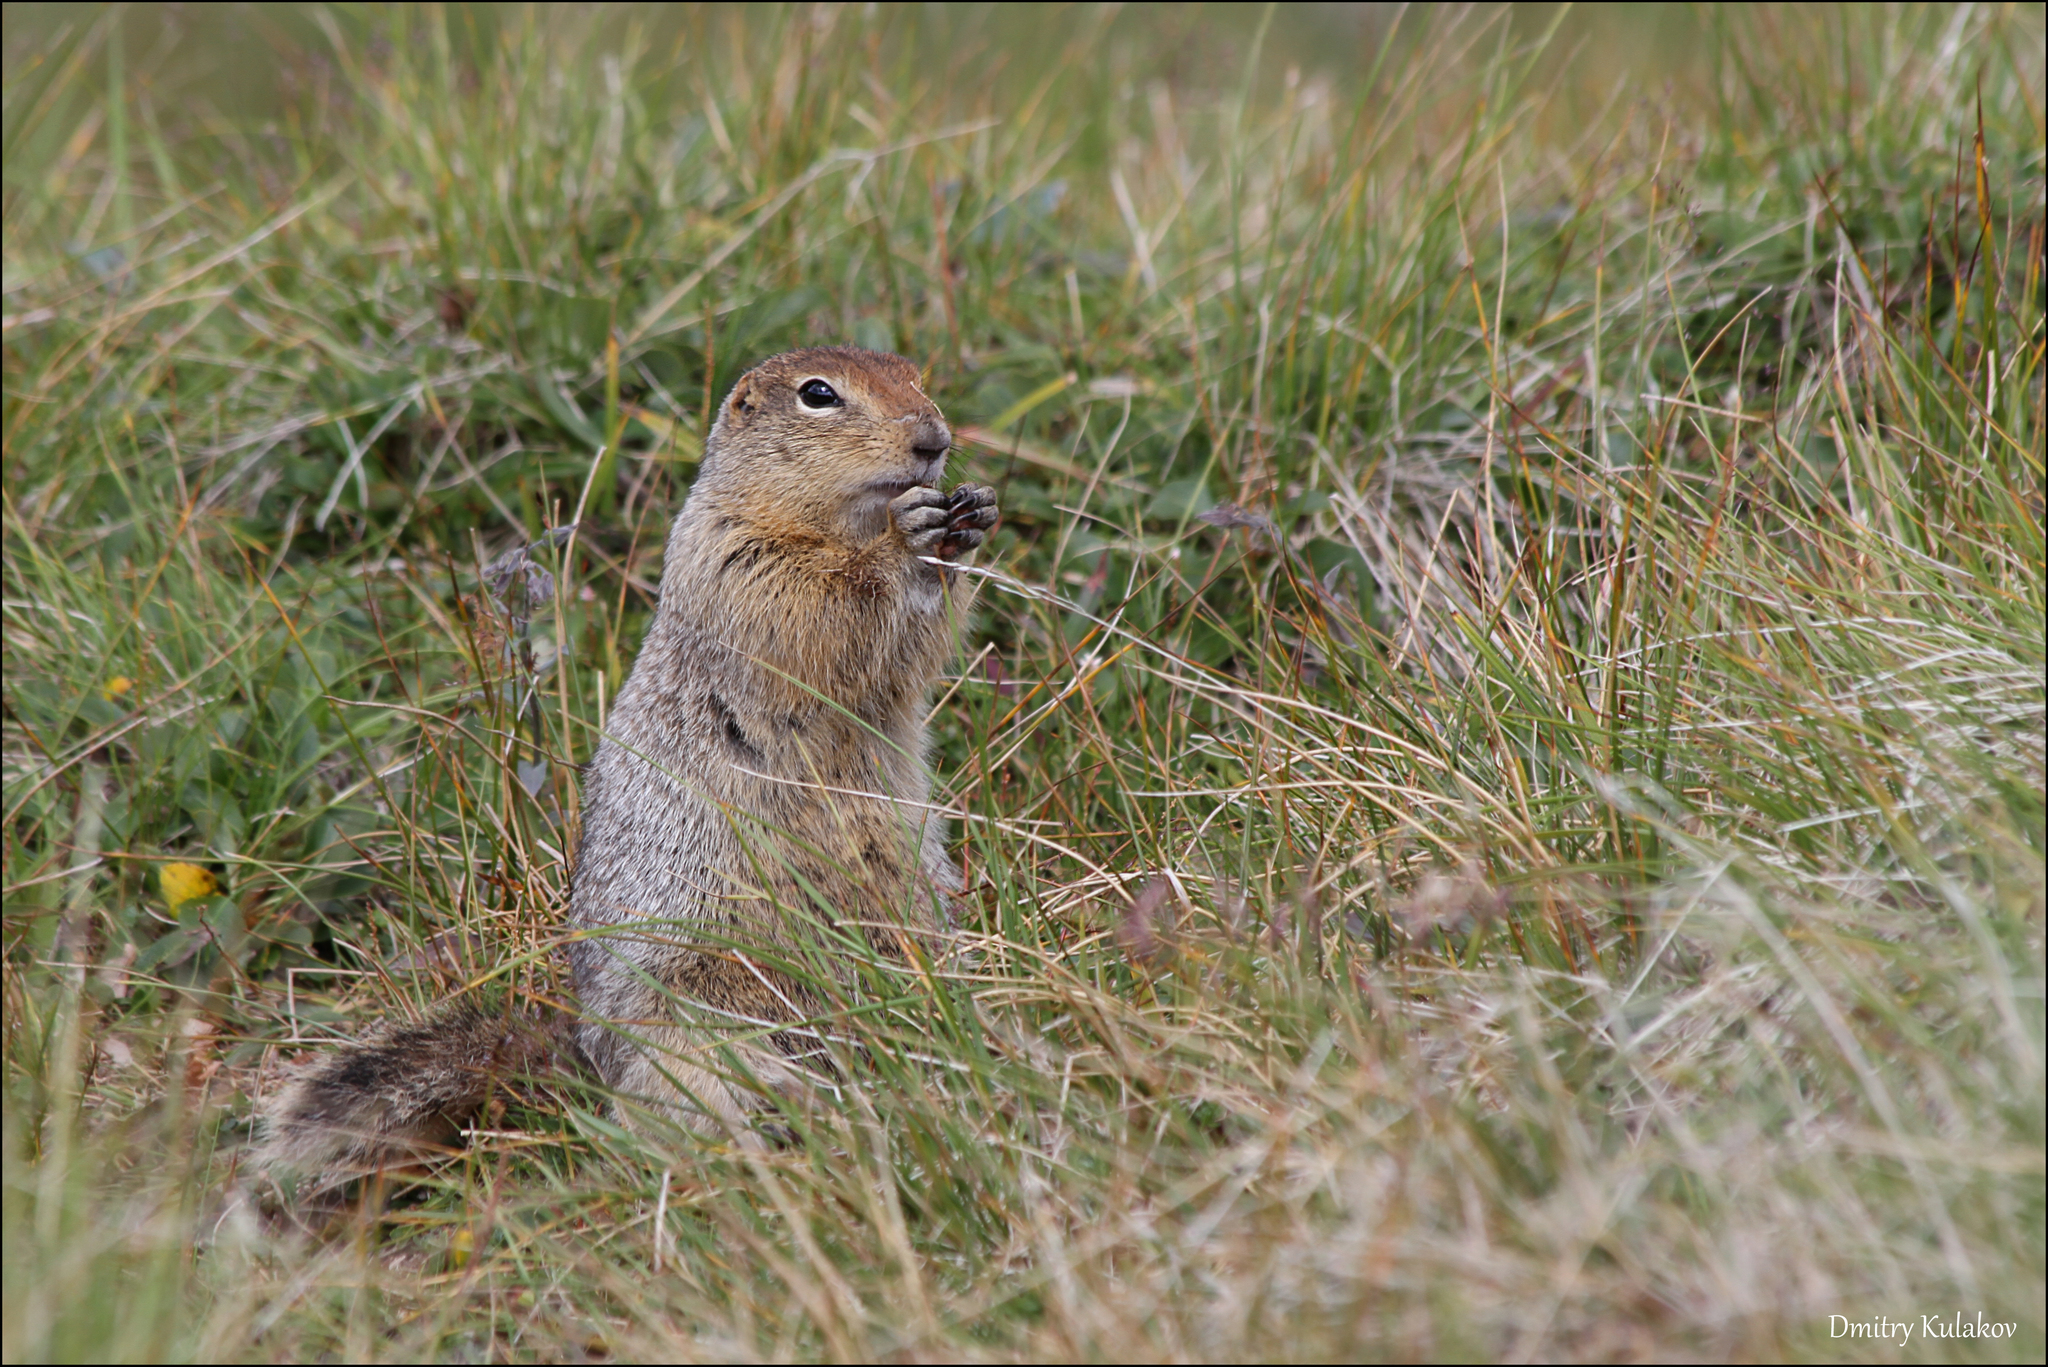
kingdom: Animalia
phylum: Chordata
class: Mammalia
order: Rodentia
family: Sciuridae
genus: Urocitellus
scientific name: Urocitellus parryii
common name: Arctic ground squirrel
